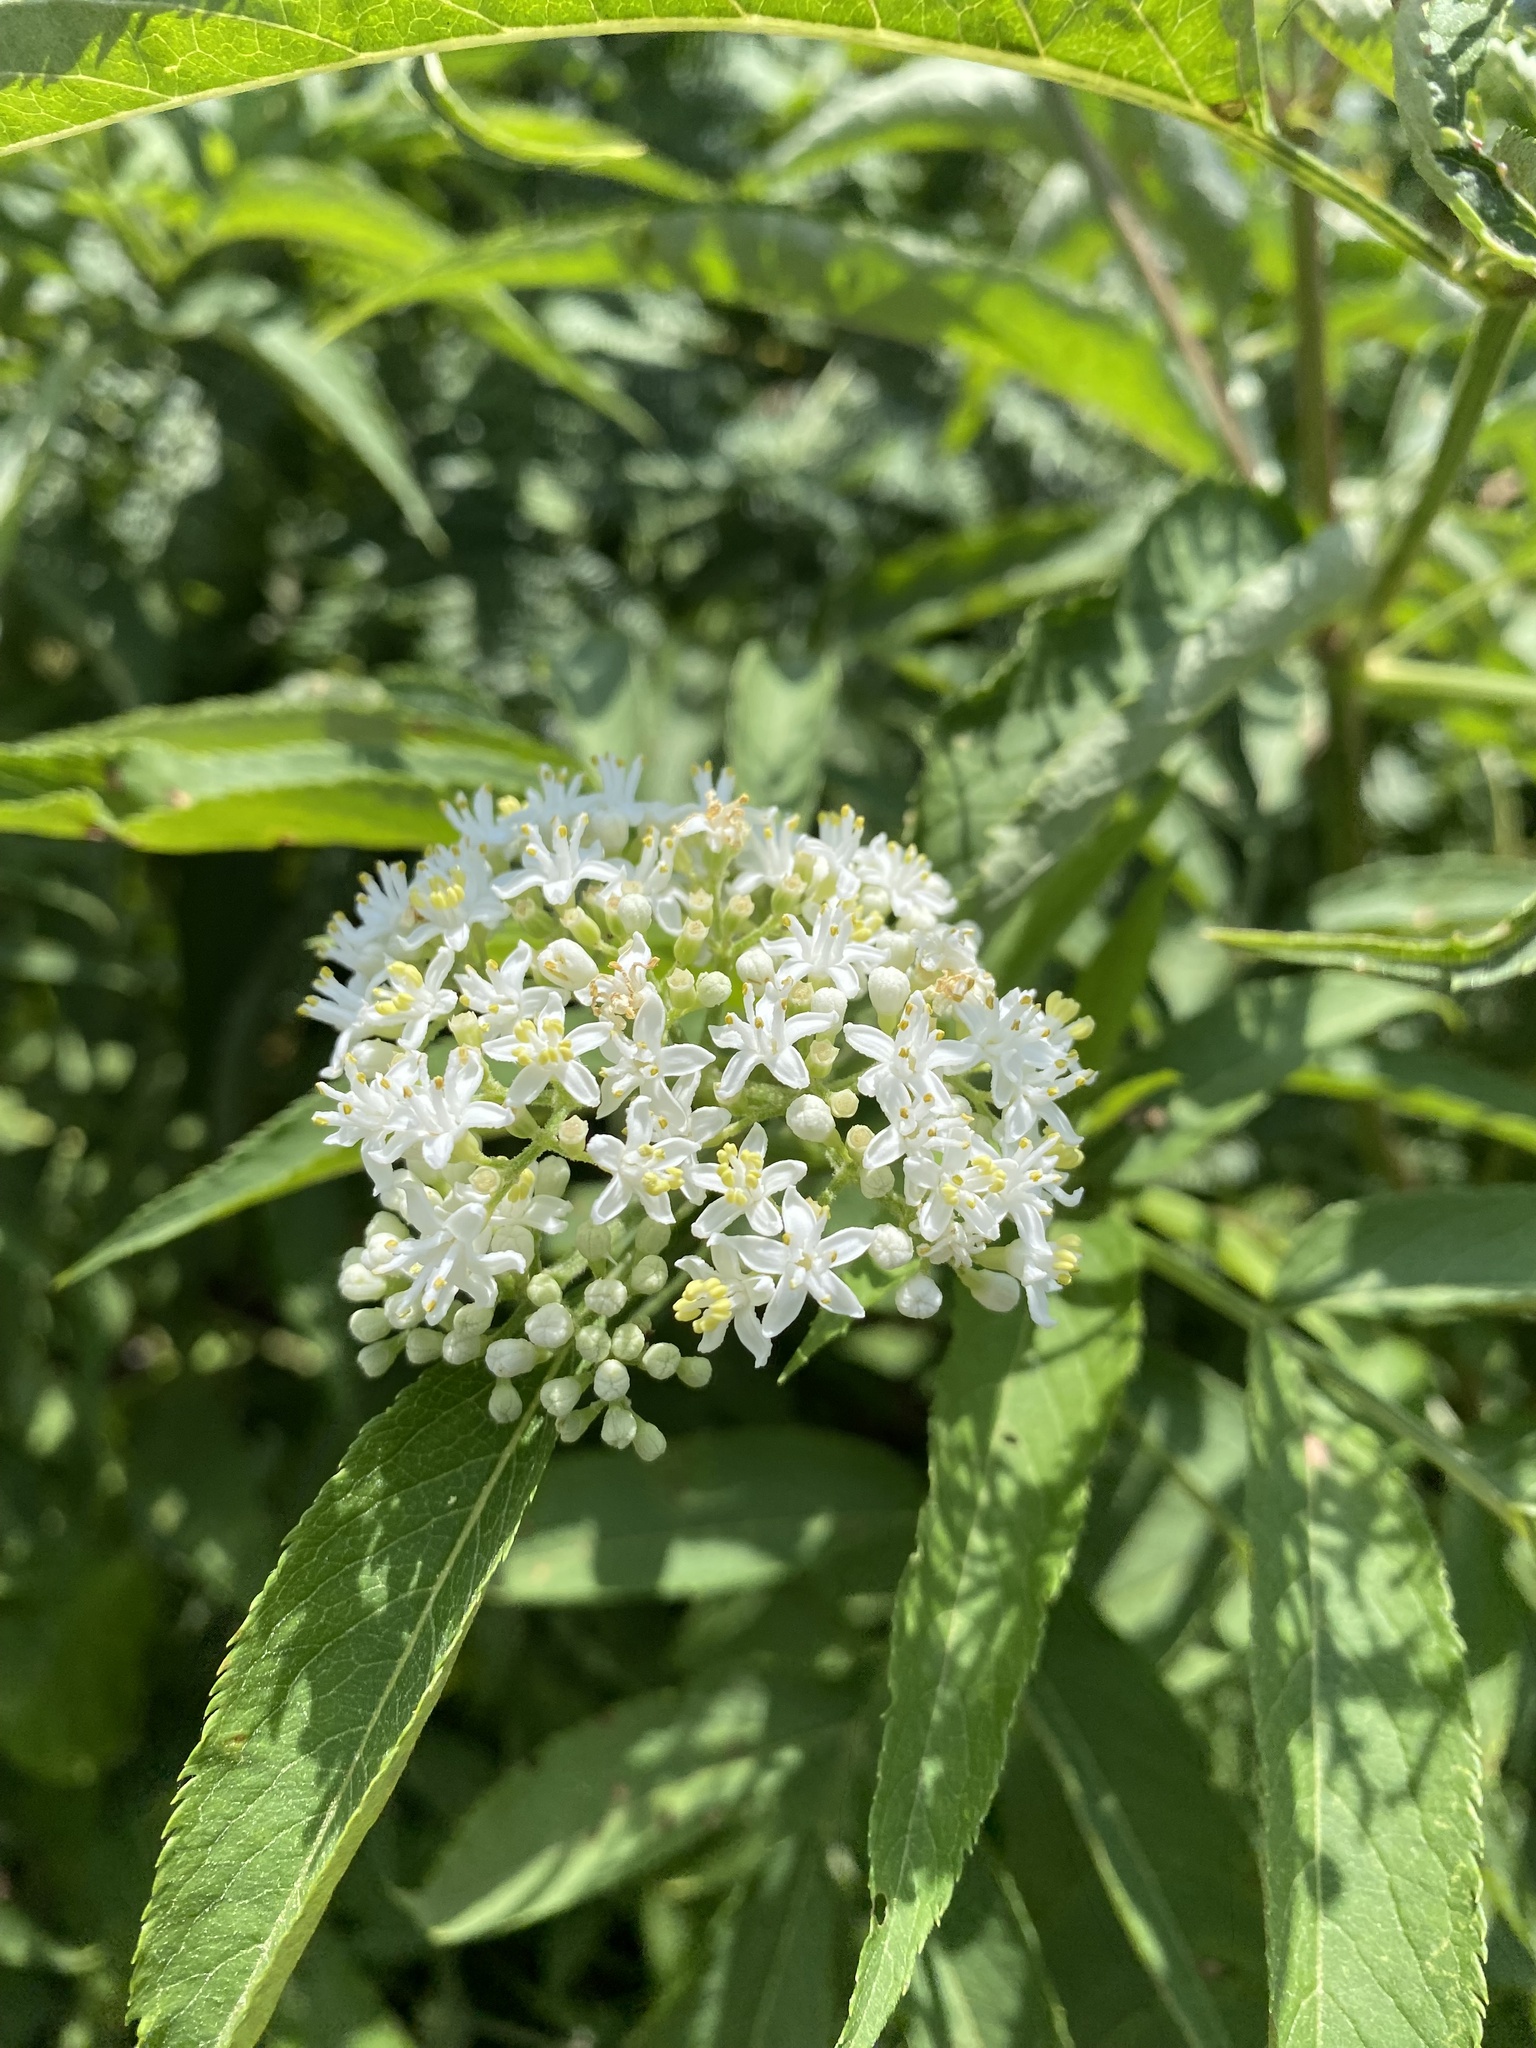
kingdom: Plantae
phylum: Tracheophyta
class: Magnoliopsida
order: Dipsacales
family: Viburnaceae
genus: Sambucus
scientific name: Sambucus ebulus
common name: Dwarf elder
